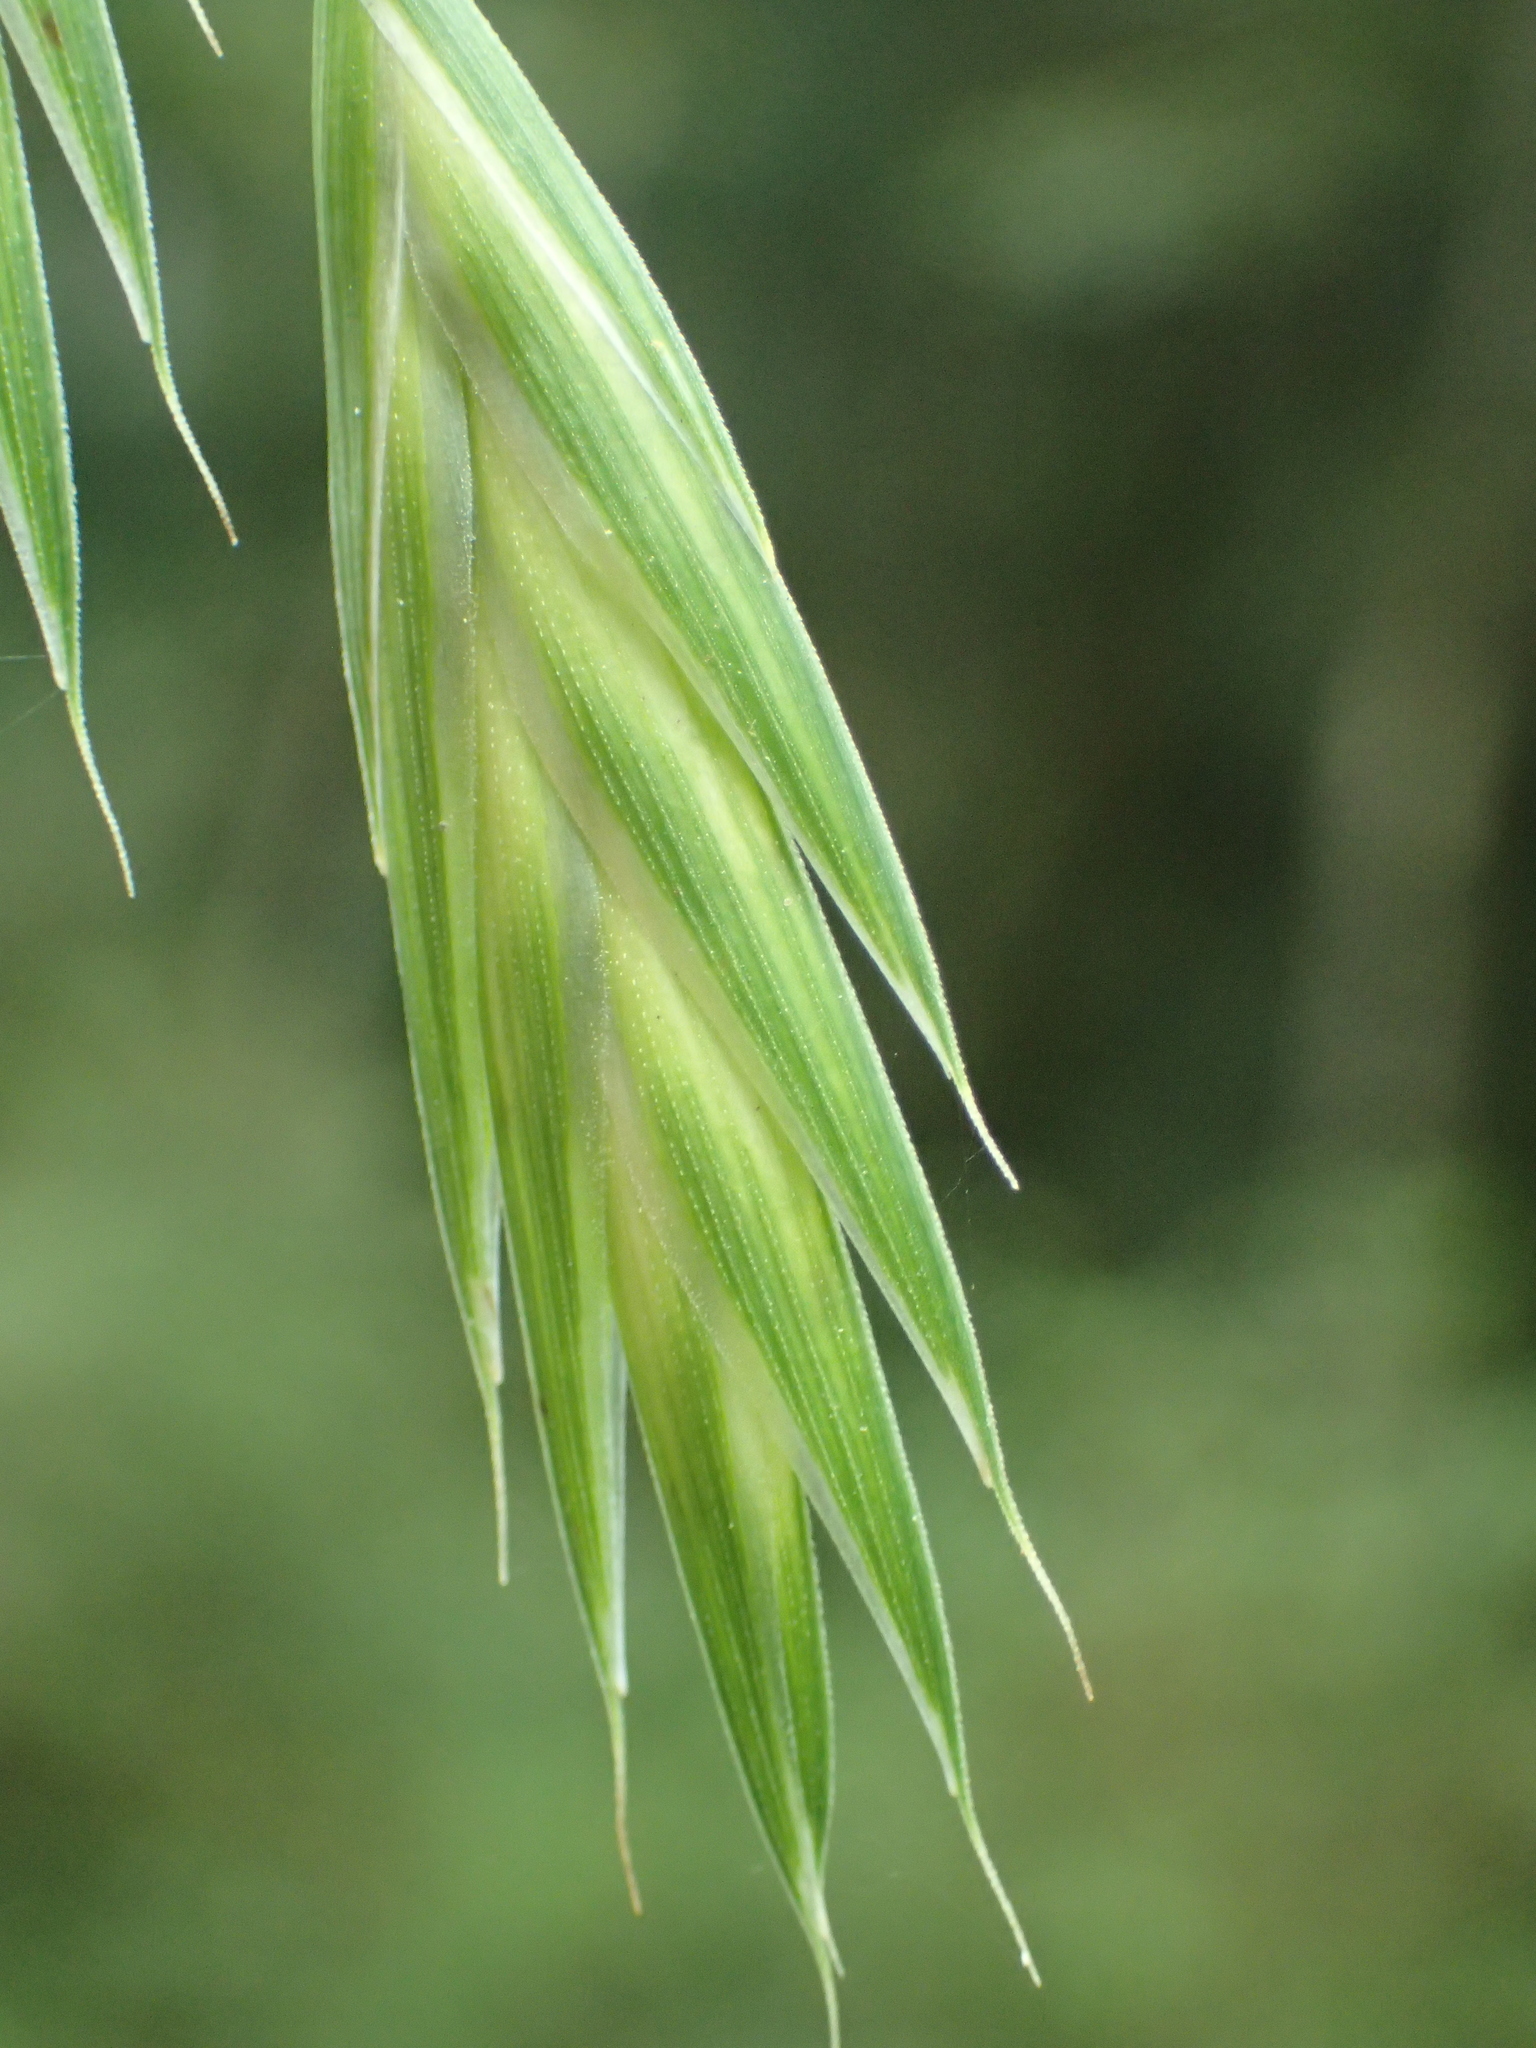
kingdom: Plantae
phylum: Tracheophyta
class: Liliopsida
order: Poales
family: Poaceae
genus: Bromus
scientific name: Bromus catharticus
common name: Rescuegrass
